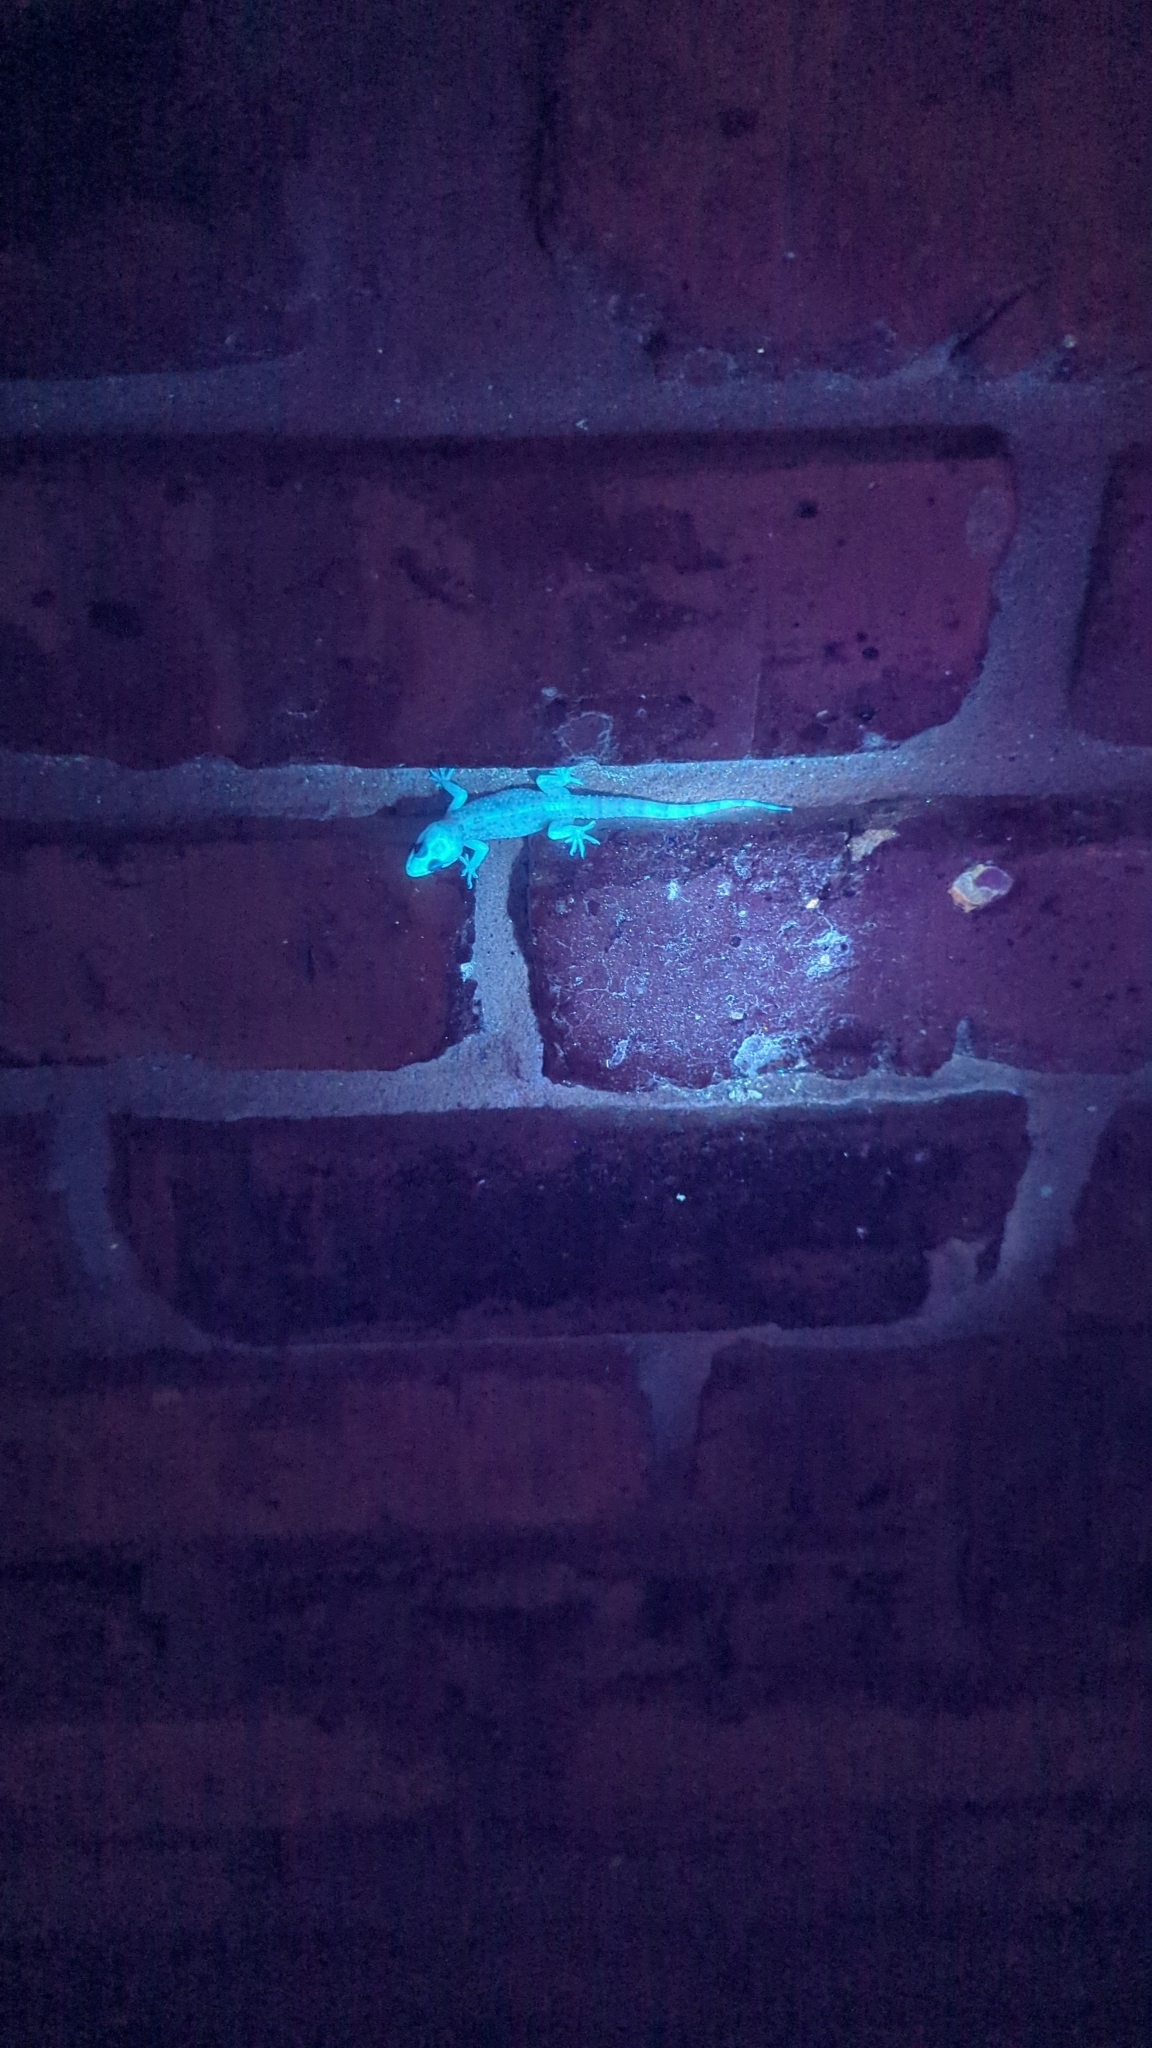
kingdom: Animalia
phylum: Chordata
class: Squamata
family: Gekkonidae
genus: Hemidactylus
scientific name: Hemidactylus turcicus
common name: Turkish gecko
